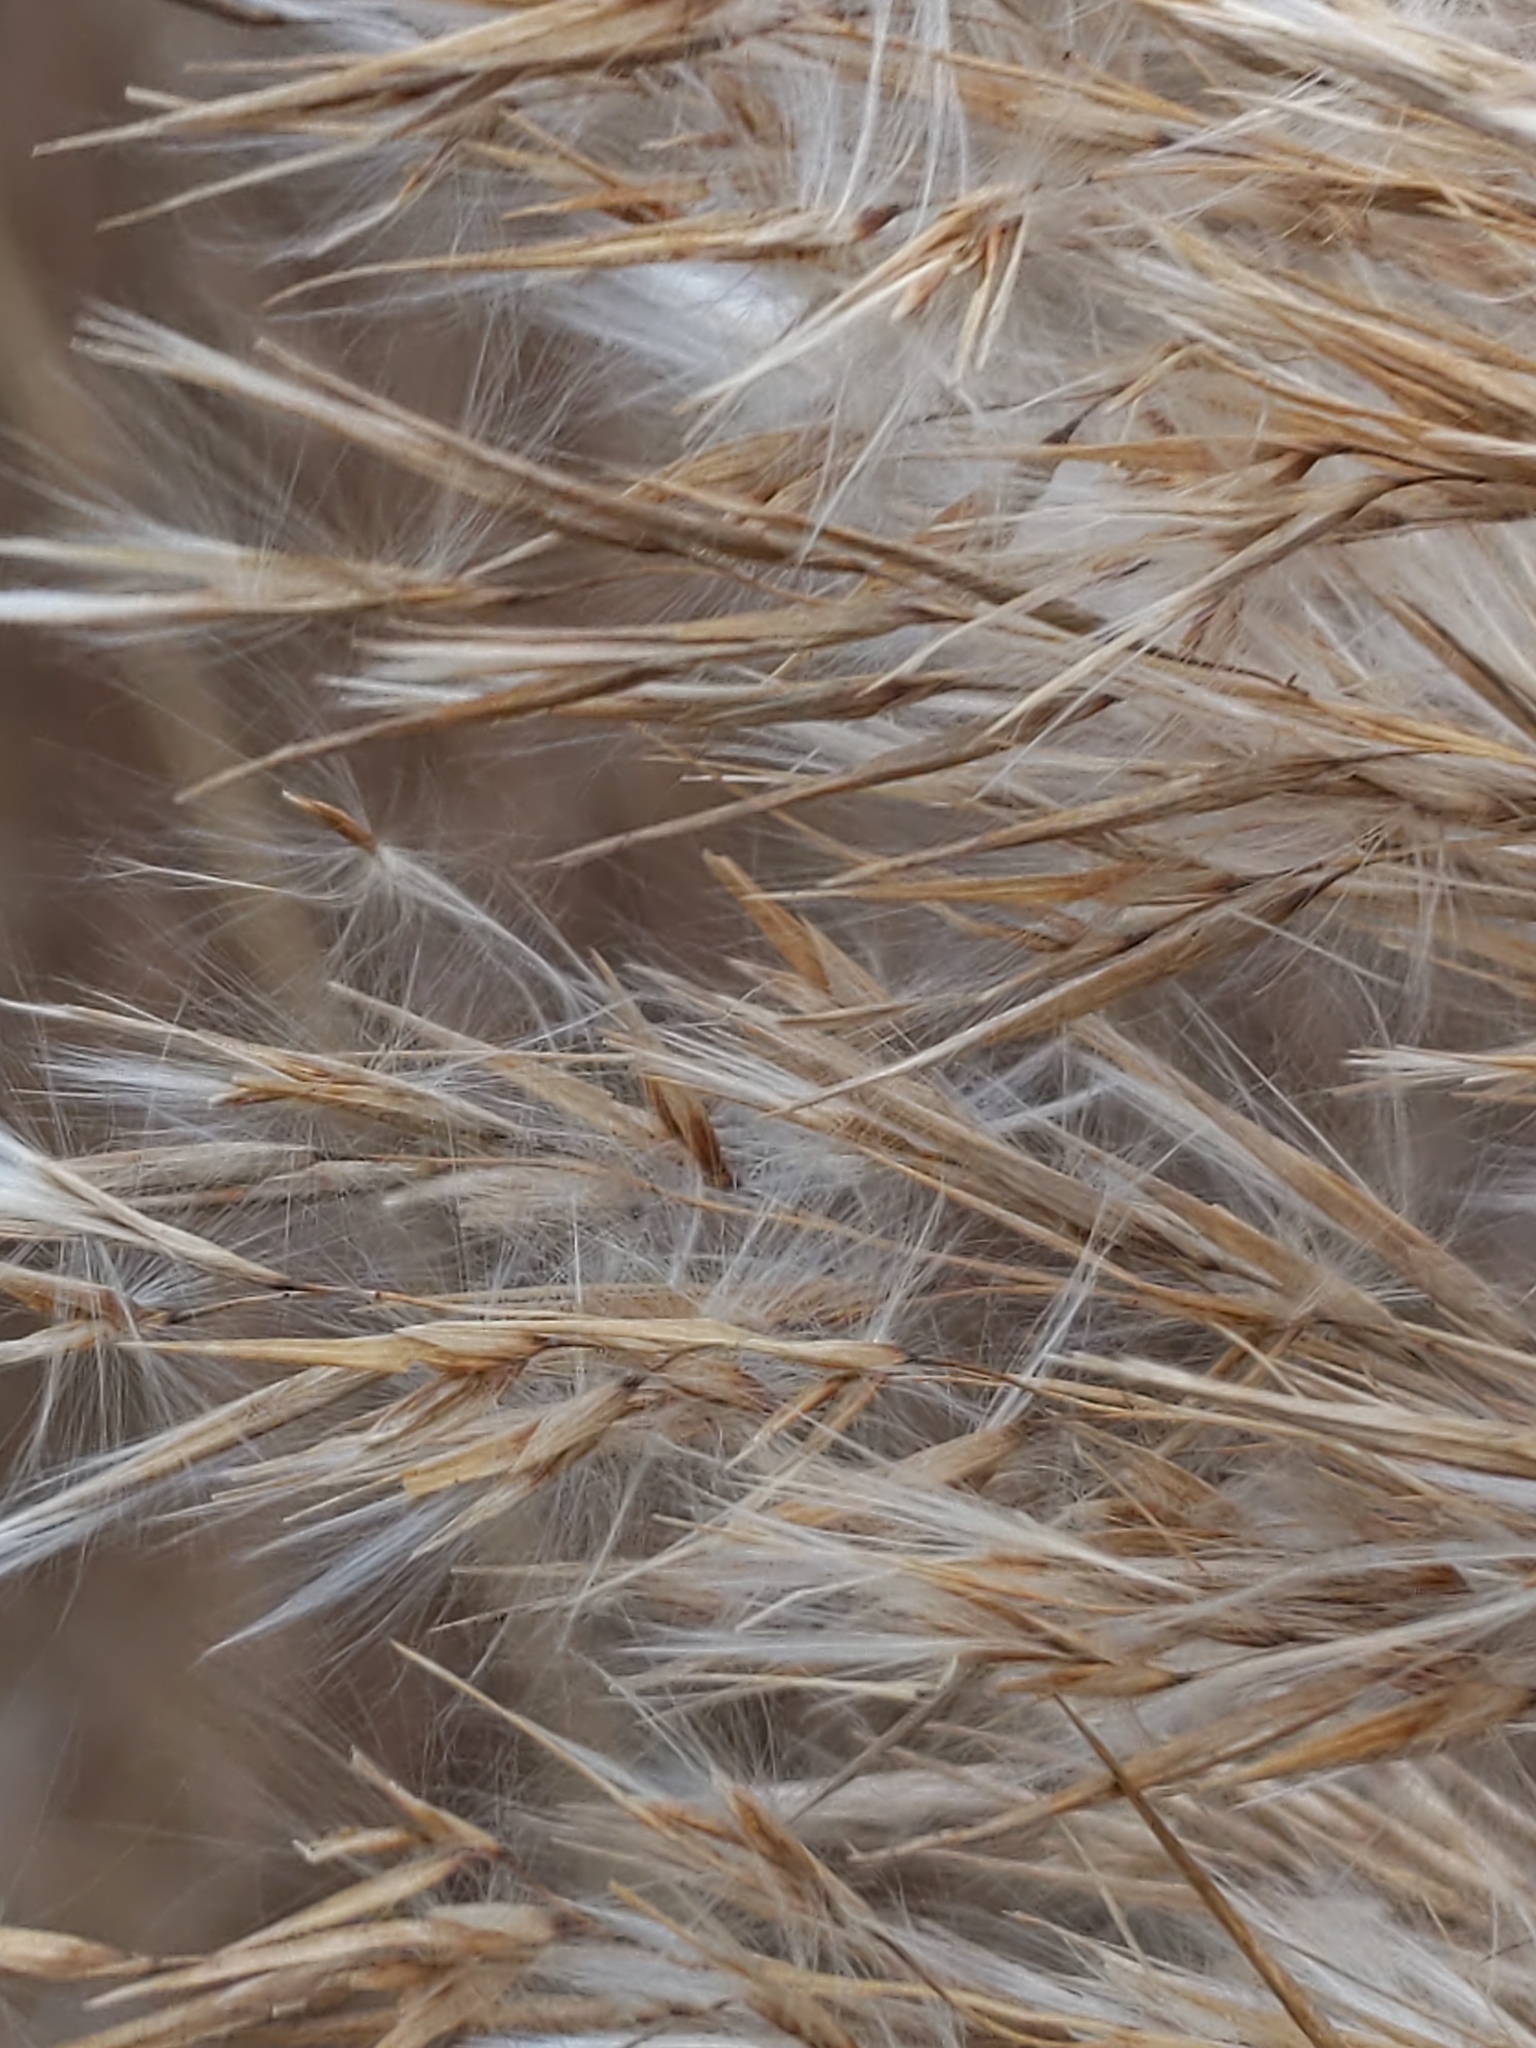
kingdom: Plantae
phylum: Tracheophyta
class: Liliopsida
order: Poales
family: Poaceae
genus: Phragmites
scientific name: Phragmites australis
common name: Common reed
